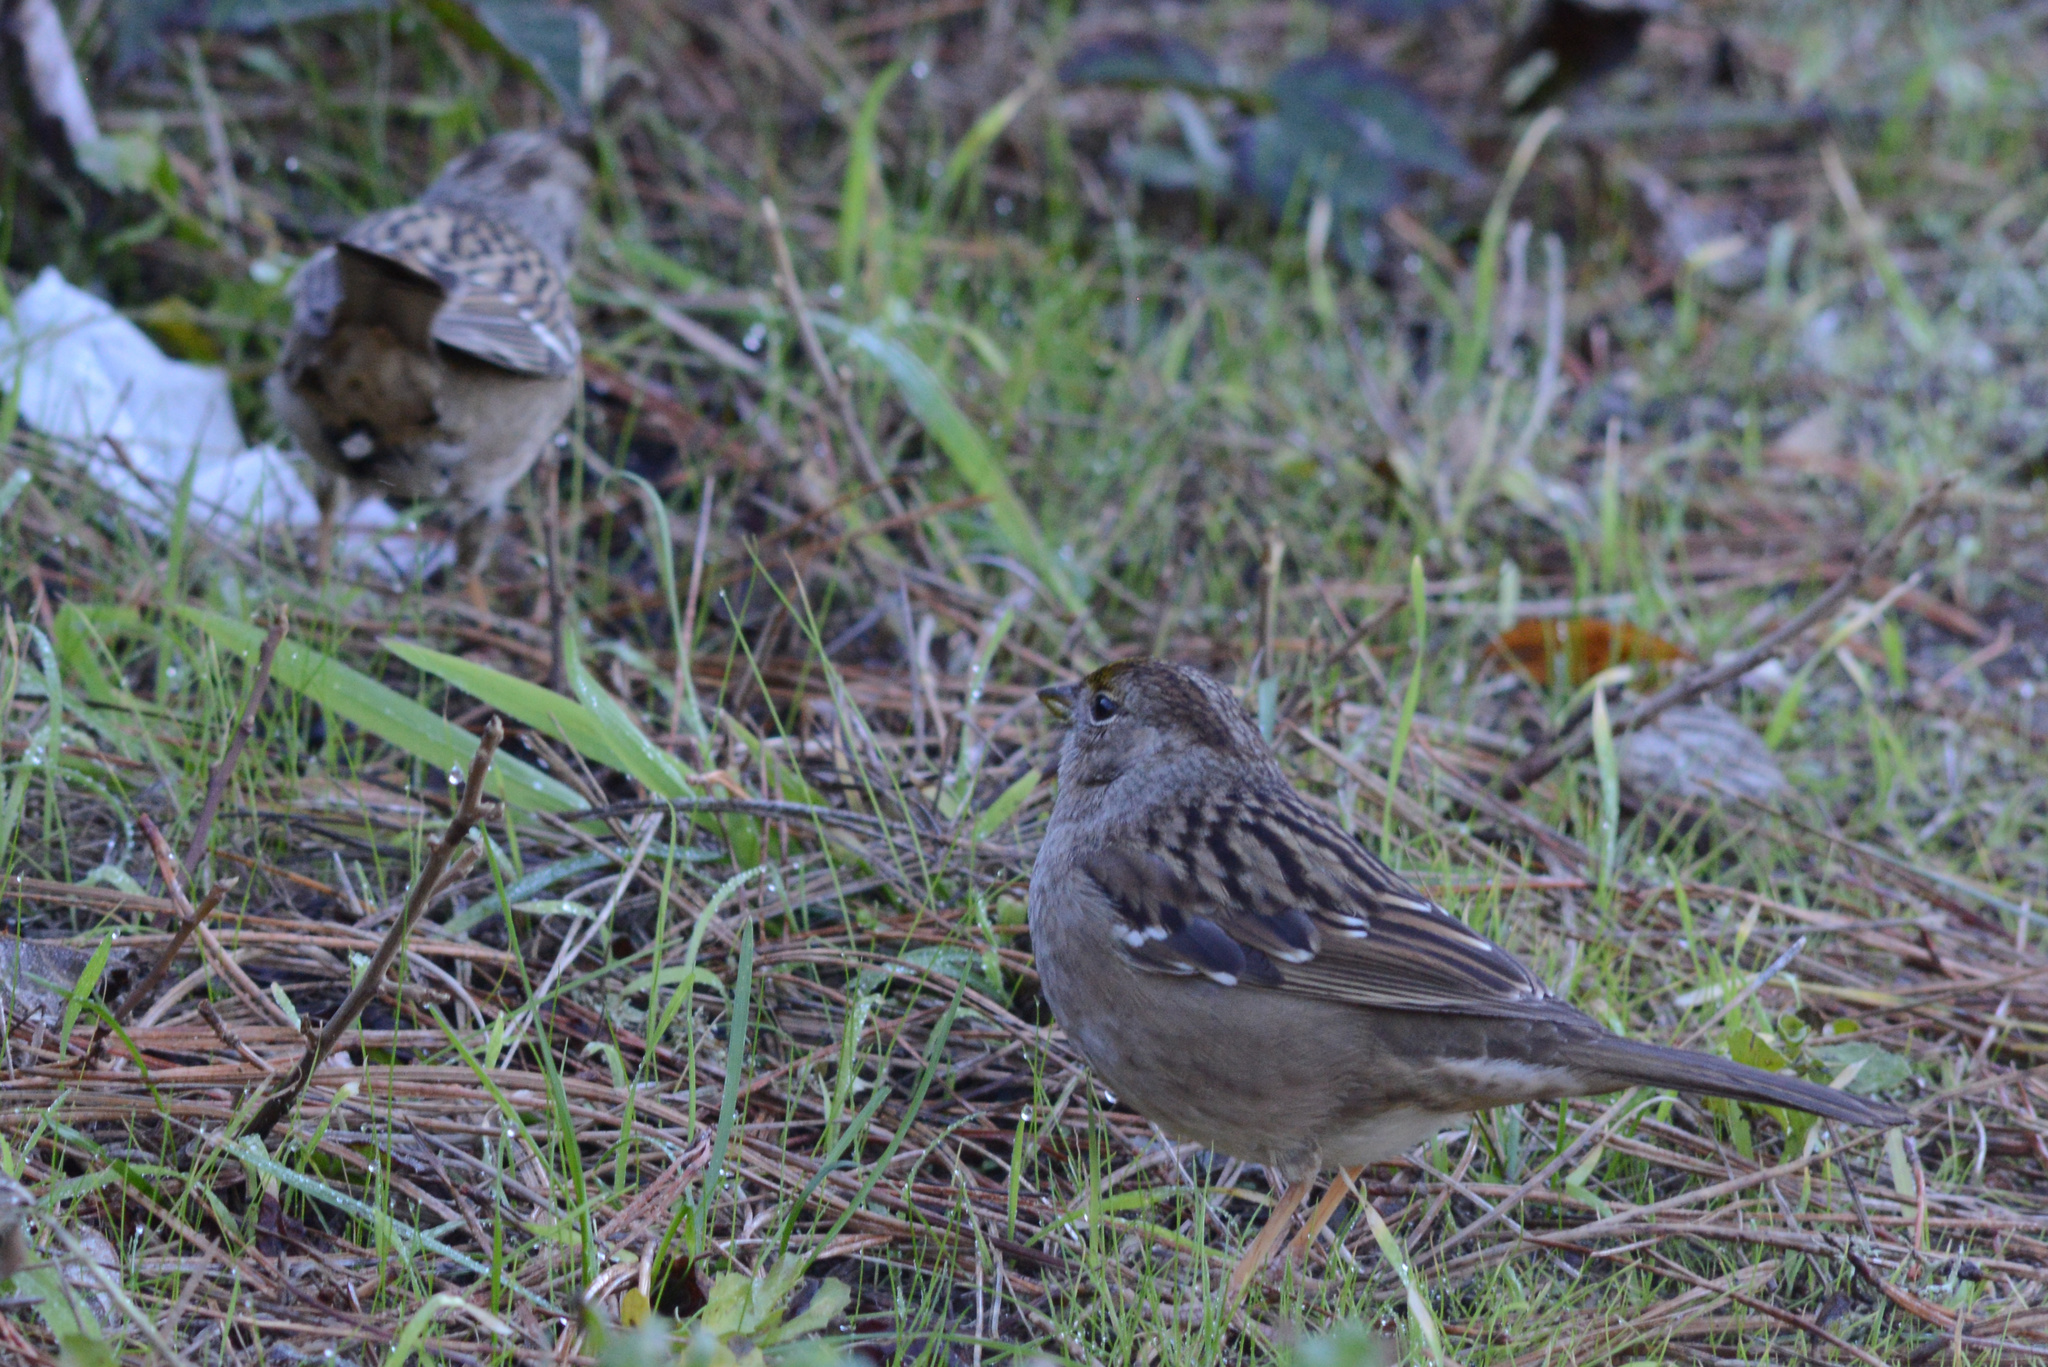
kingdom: Animalia
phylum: Chordata
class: Aves
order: Passeriformes
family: Passerellidae
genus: Zonotrichia
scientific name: Zonotrichia atricapilla
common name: Golden-crowned sparrow
